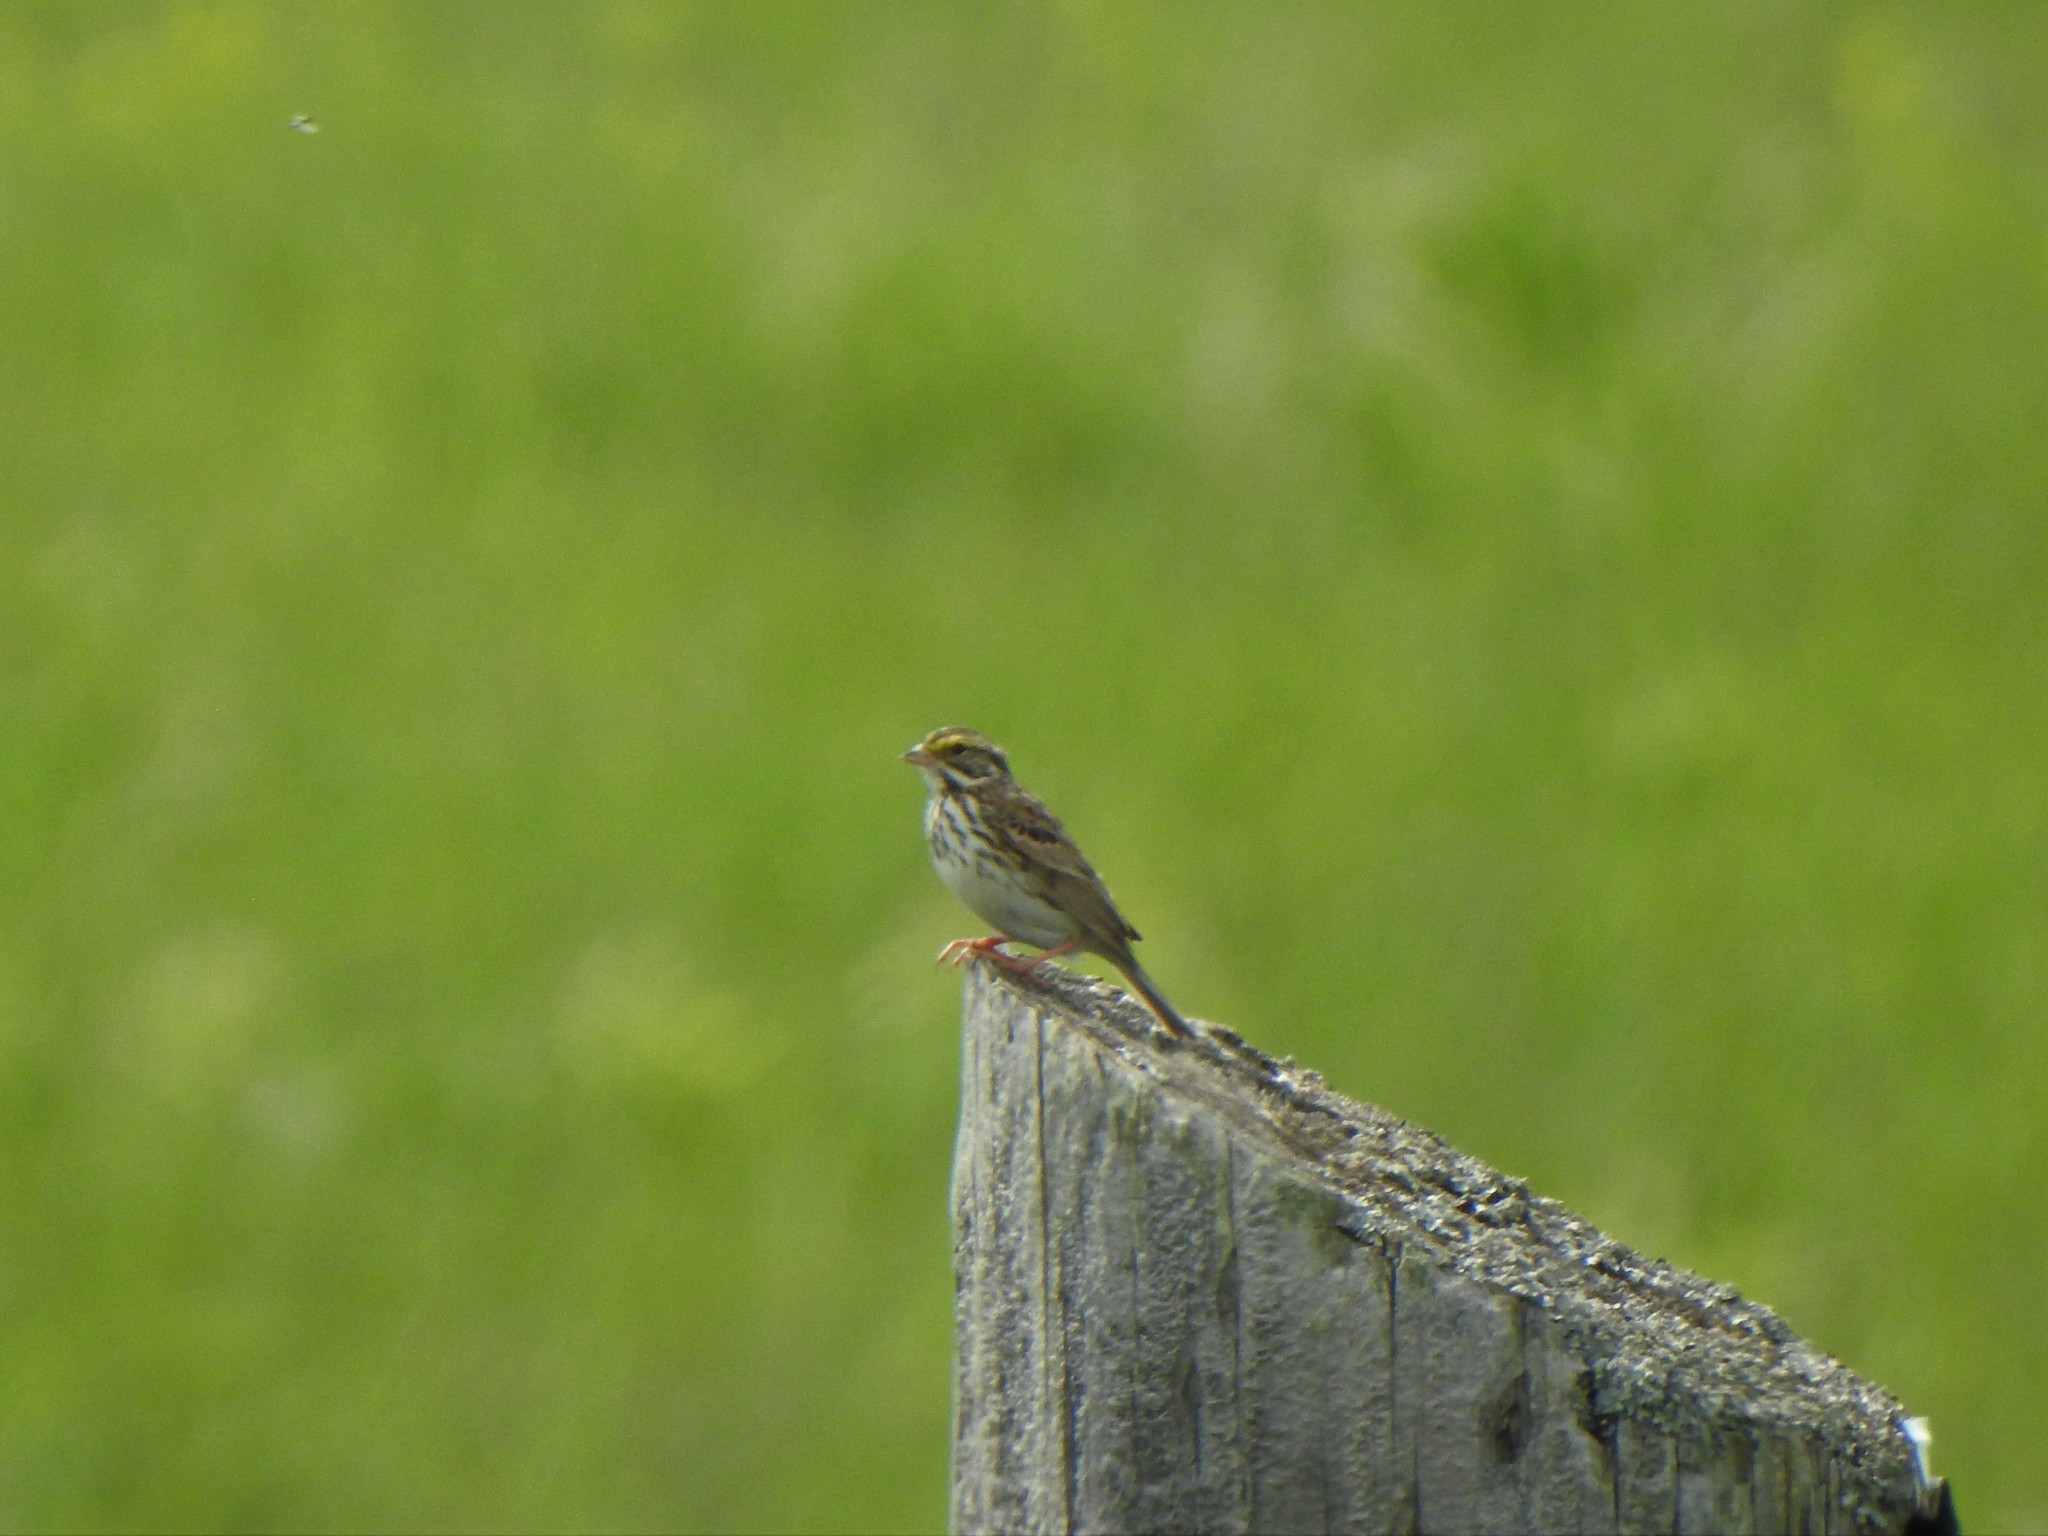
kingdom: Animalia
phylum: Chordata
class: Aves
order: Passeriformes
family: Passerellidae
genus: Passerculus
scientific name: Passerculus sandwichensis
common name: Savannah sparrow
